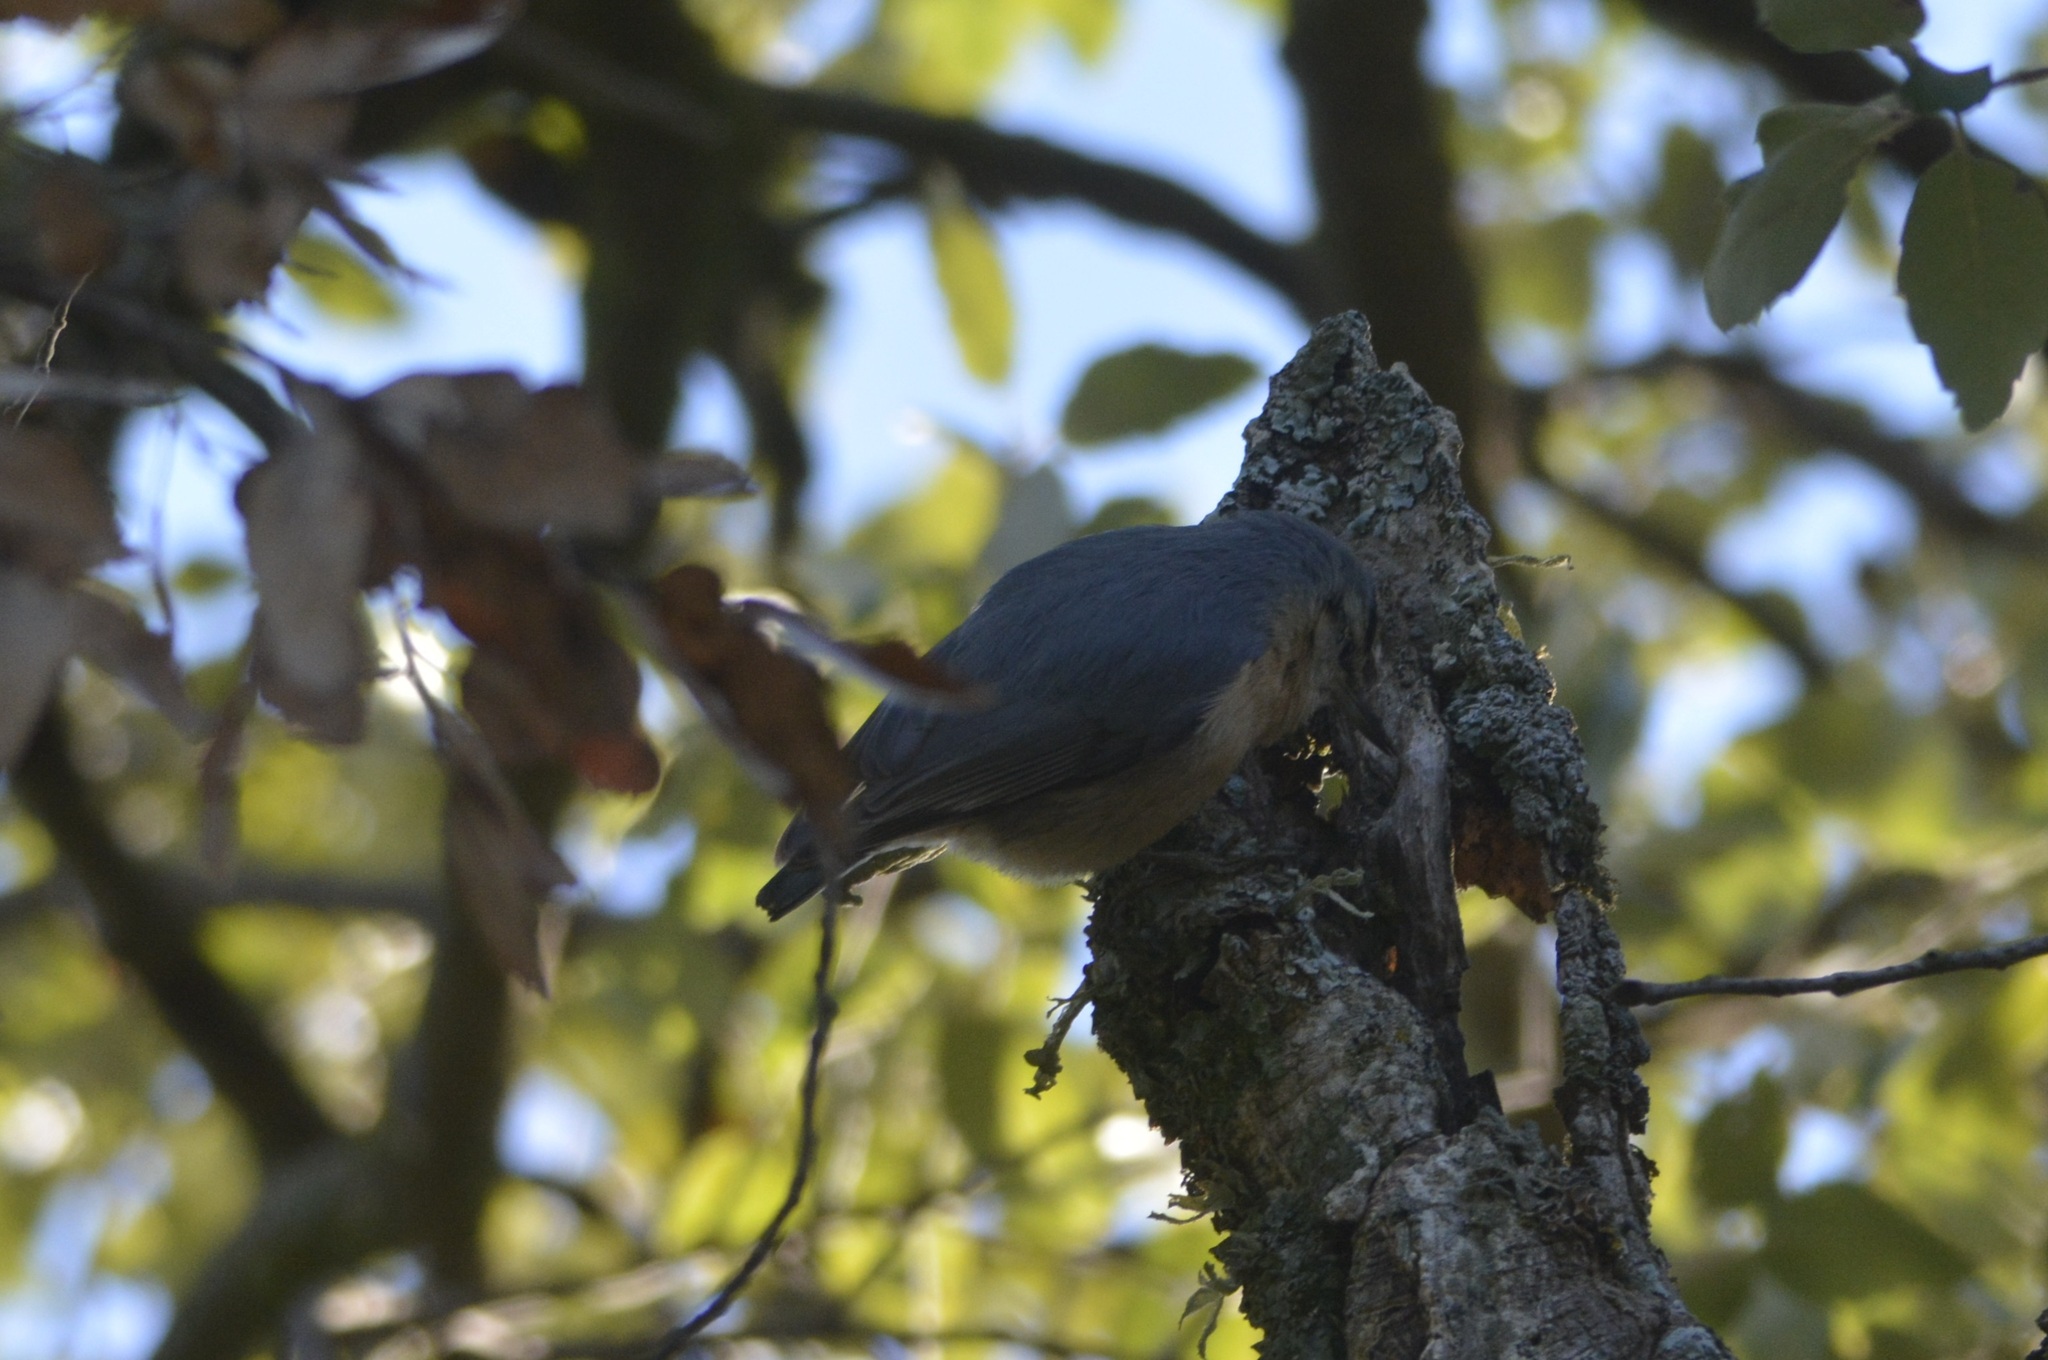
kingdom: Animalia
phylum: Chordata
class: Aves
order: Passeriformes
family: Sittidae
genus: Sitta
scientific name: Sitta ledanti
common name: Algerian nuthatch
